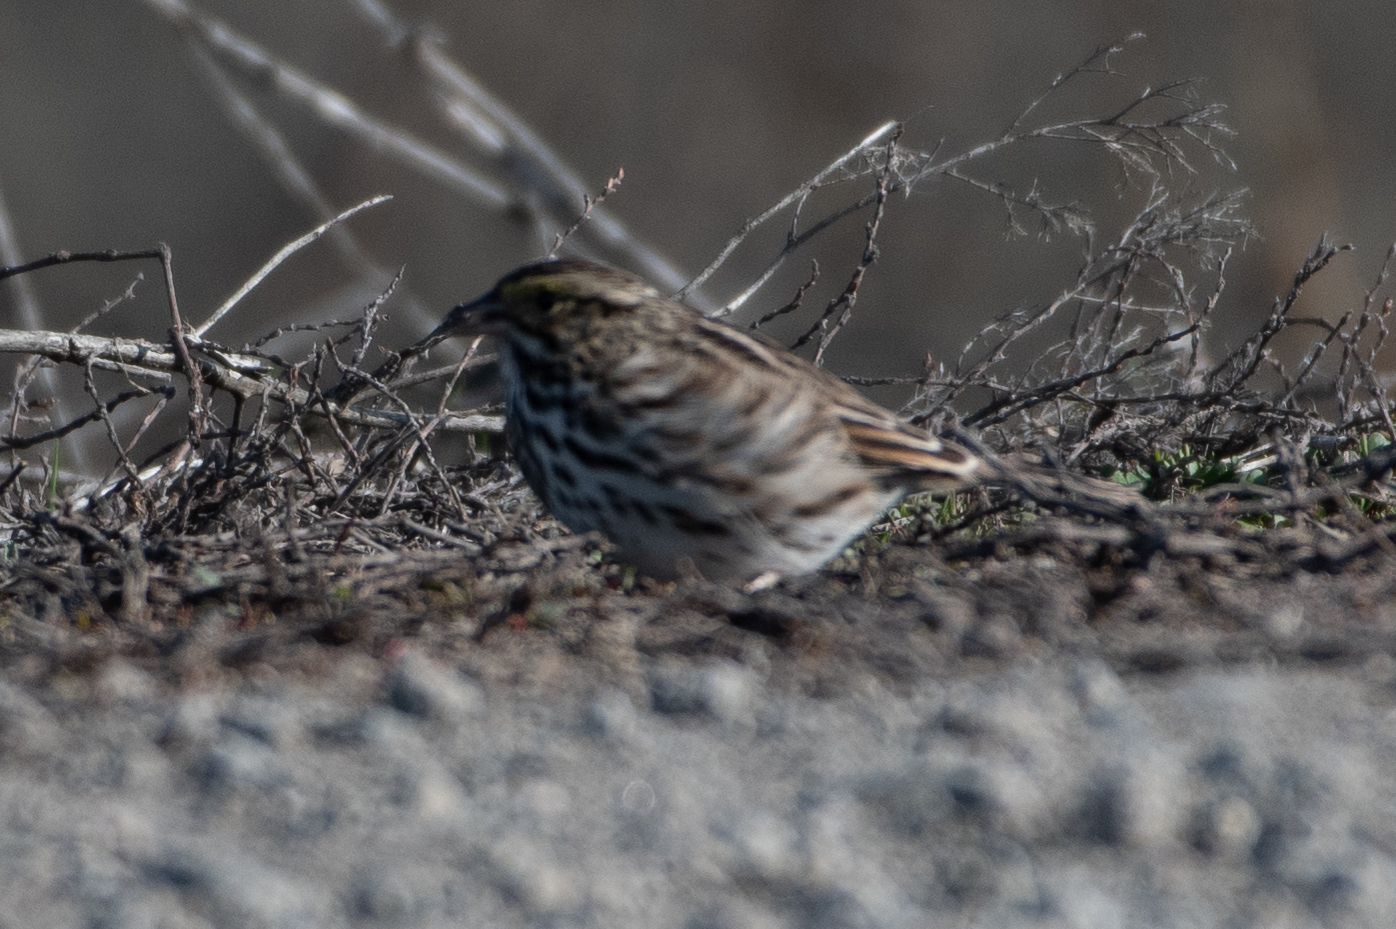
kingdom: Animalia
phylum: Chordata
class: Aves
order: Passeriformes
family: Passerellidae
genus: Passerculus
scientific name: Passerculus sandwichensis
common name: Savannah sparrow
